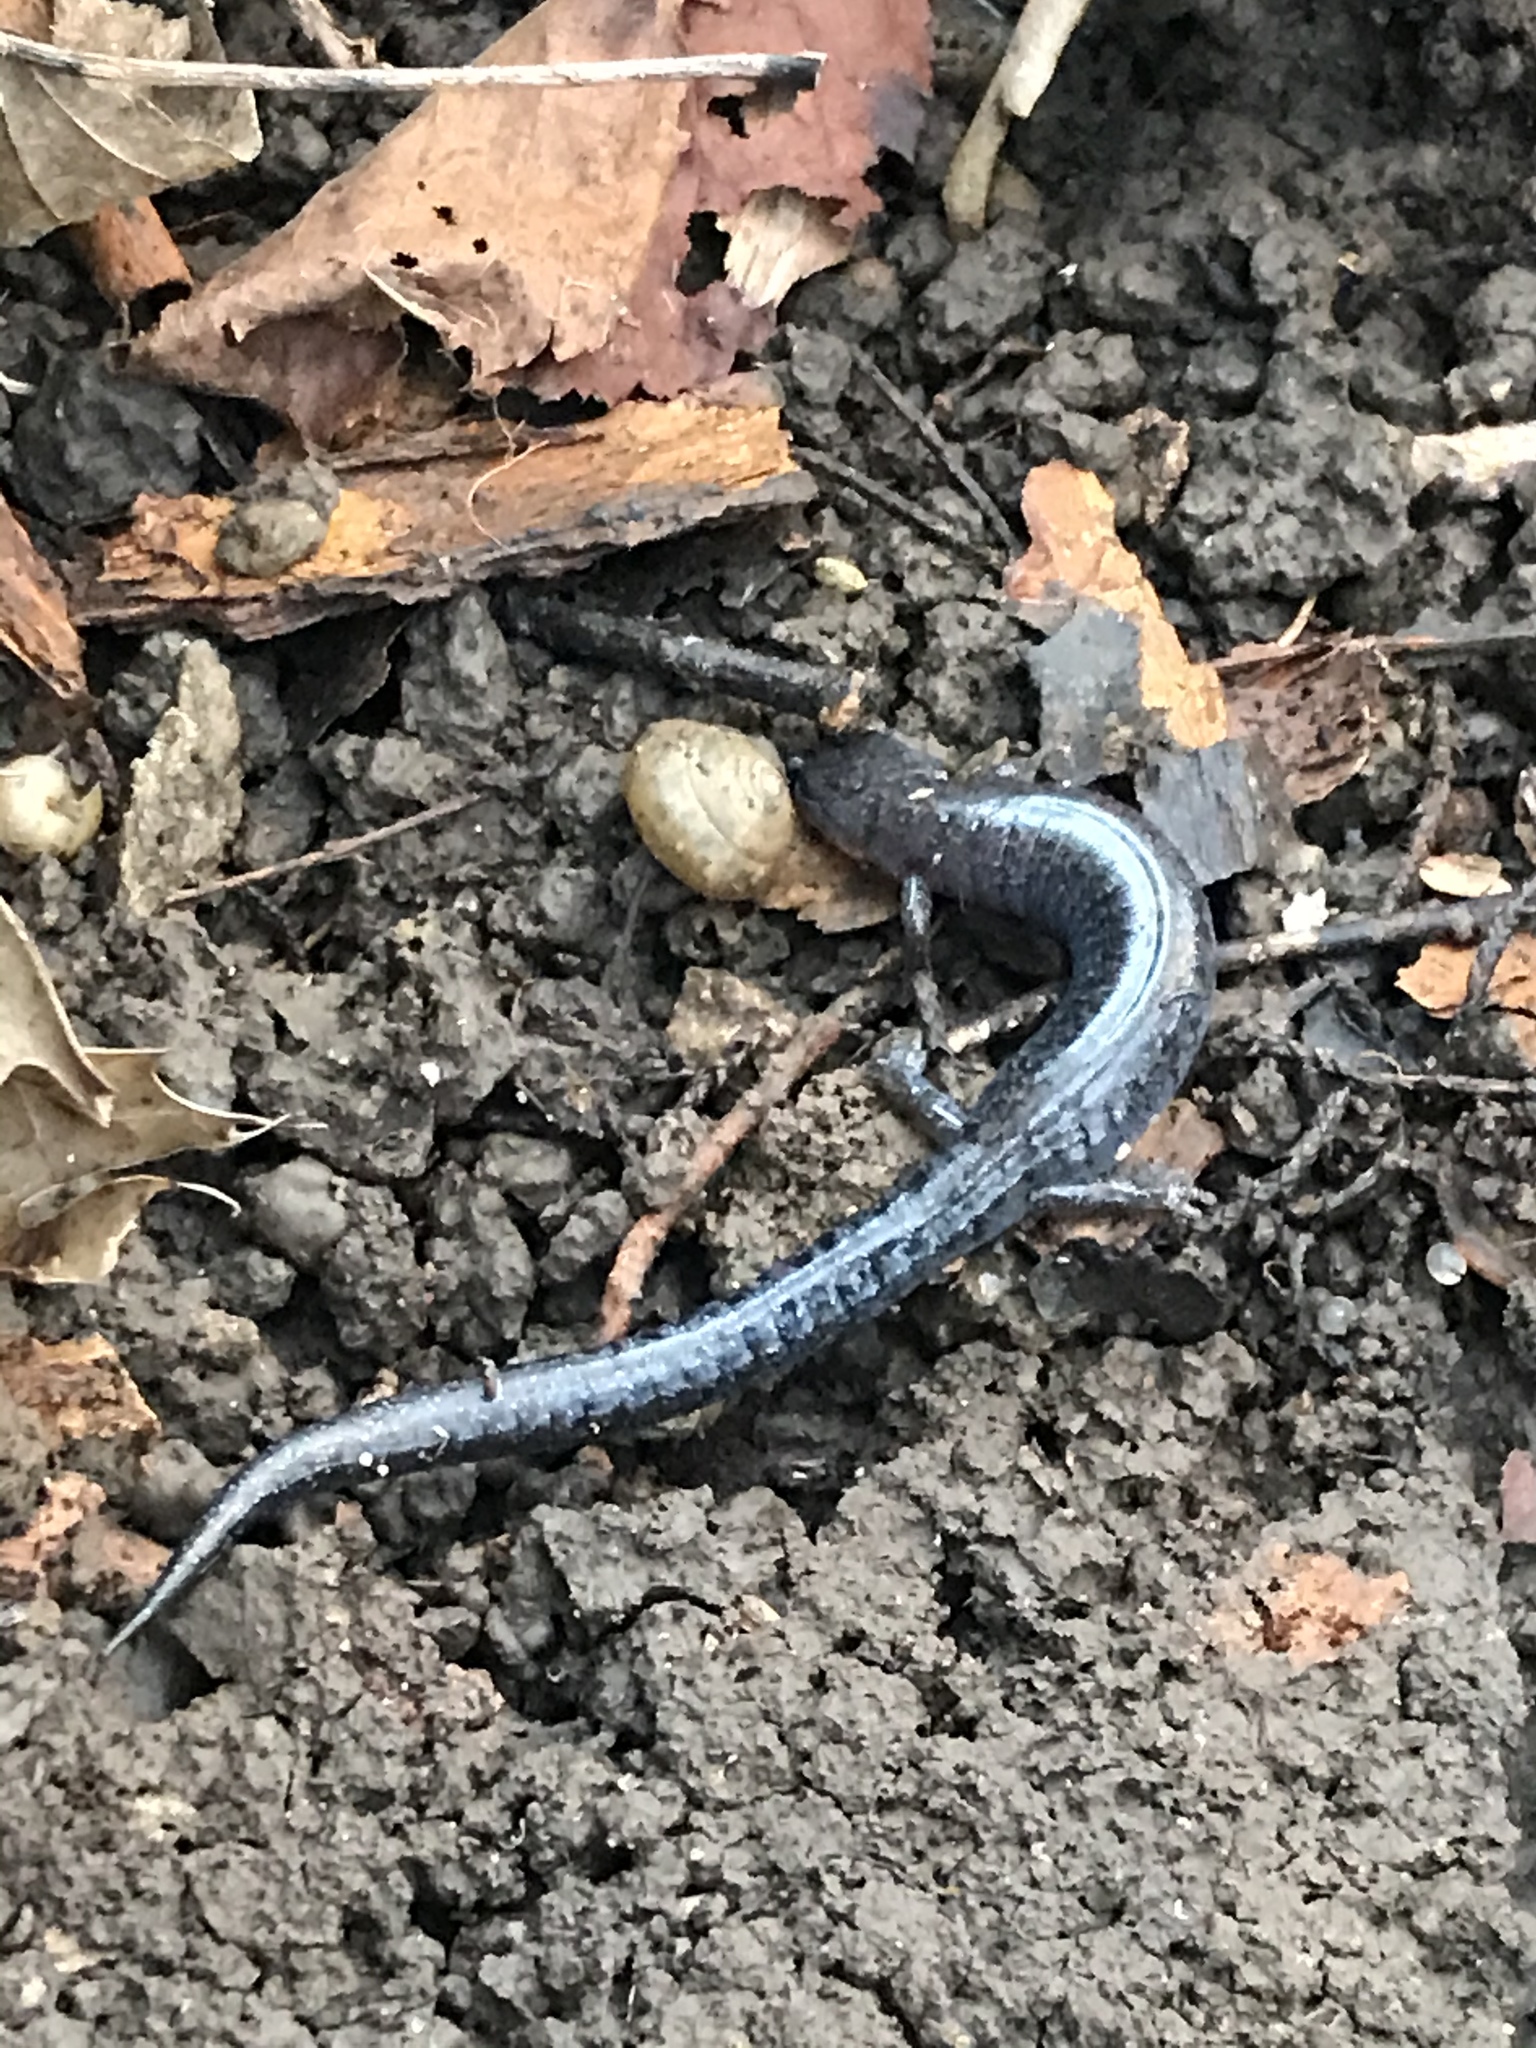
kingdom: Animalia
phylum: Chordata
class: Amphibia
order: Caudata
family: Plethodontidae
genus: Plethodon
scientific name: Plethodon dorsalis
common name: Northern zigzag salamander
